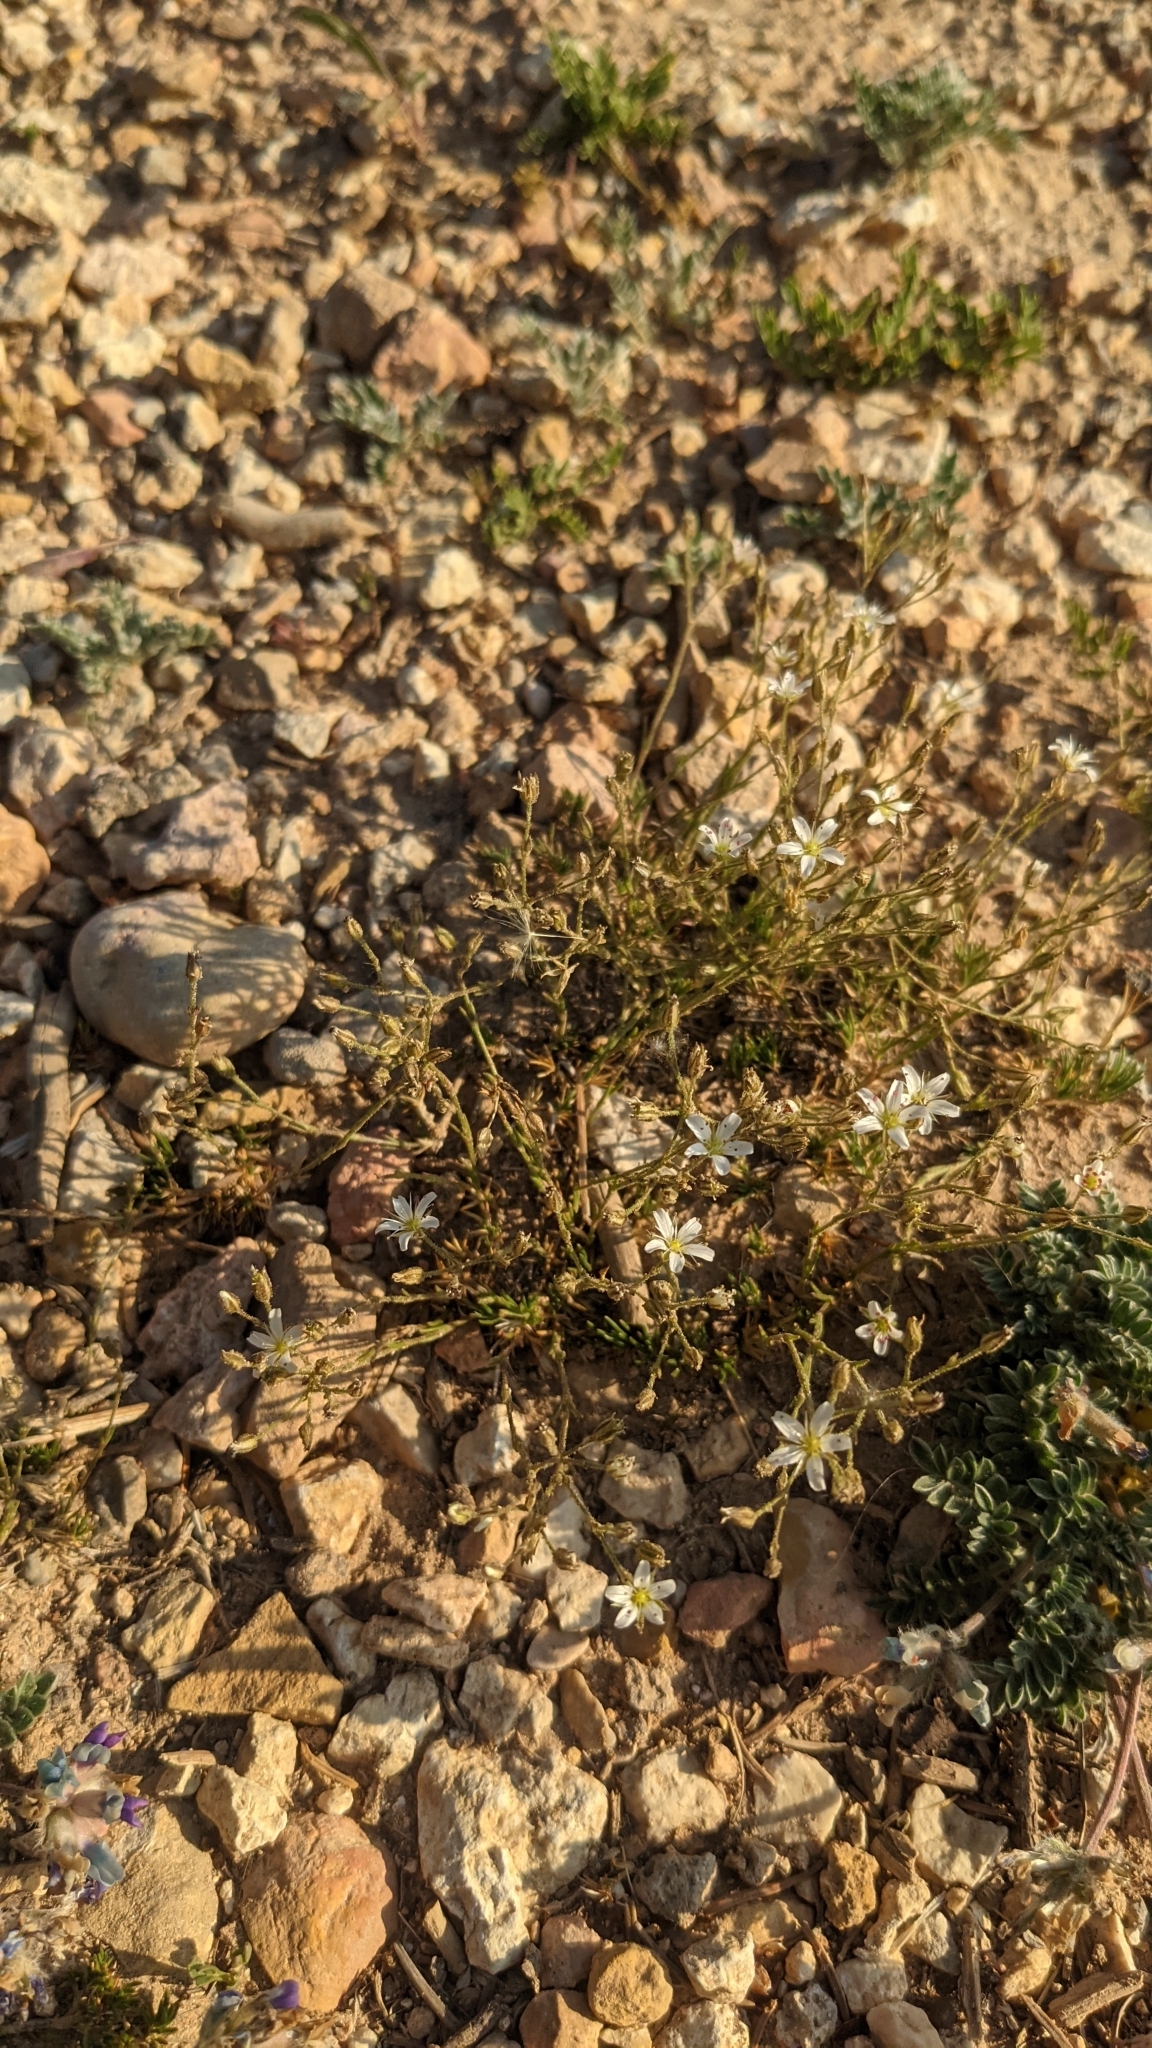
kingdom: Plantae
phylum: Tracheophyta
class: Magnoliopsida
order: Caryophyllales
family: Caryophyllaceae
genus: Eremogone
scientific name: Eremogone fendleri
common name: Fendler's sandwort
